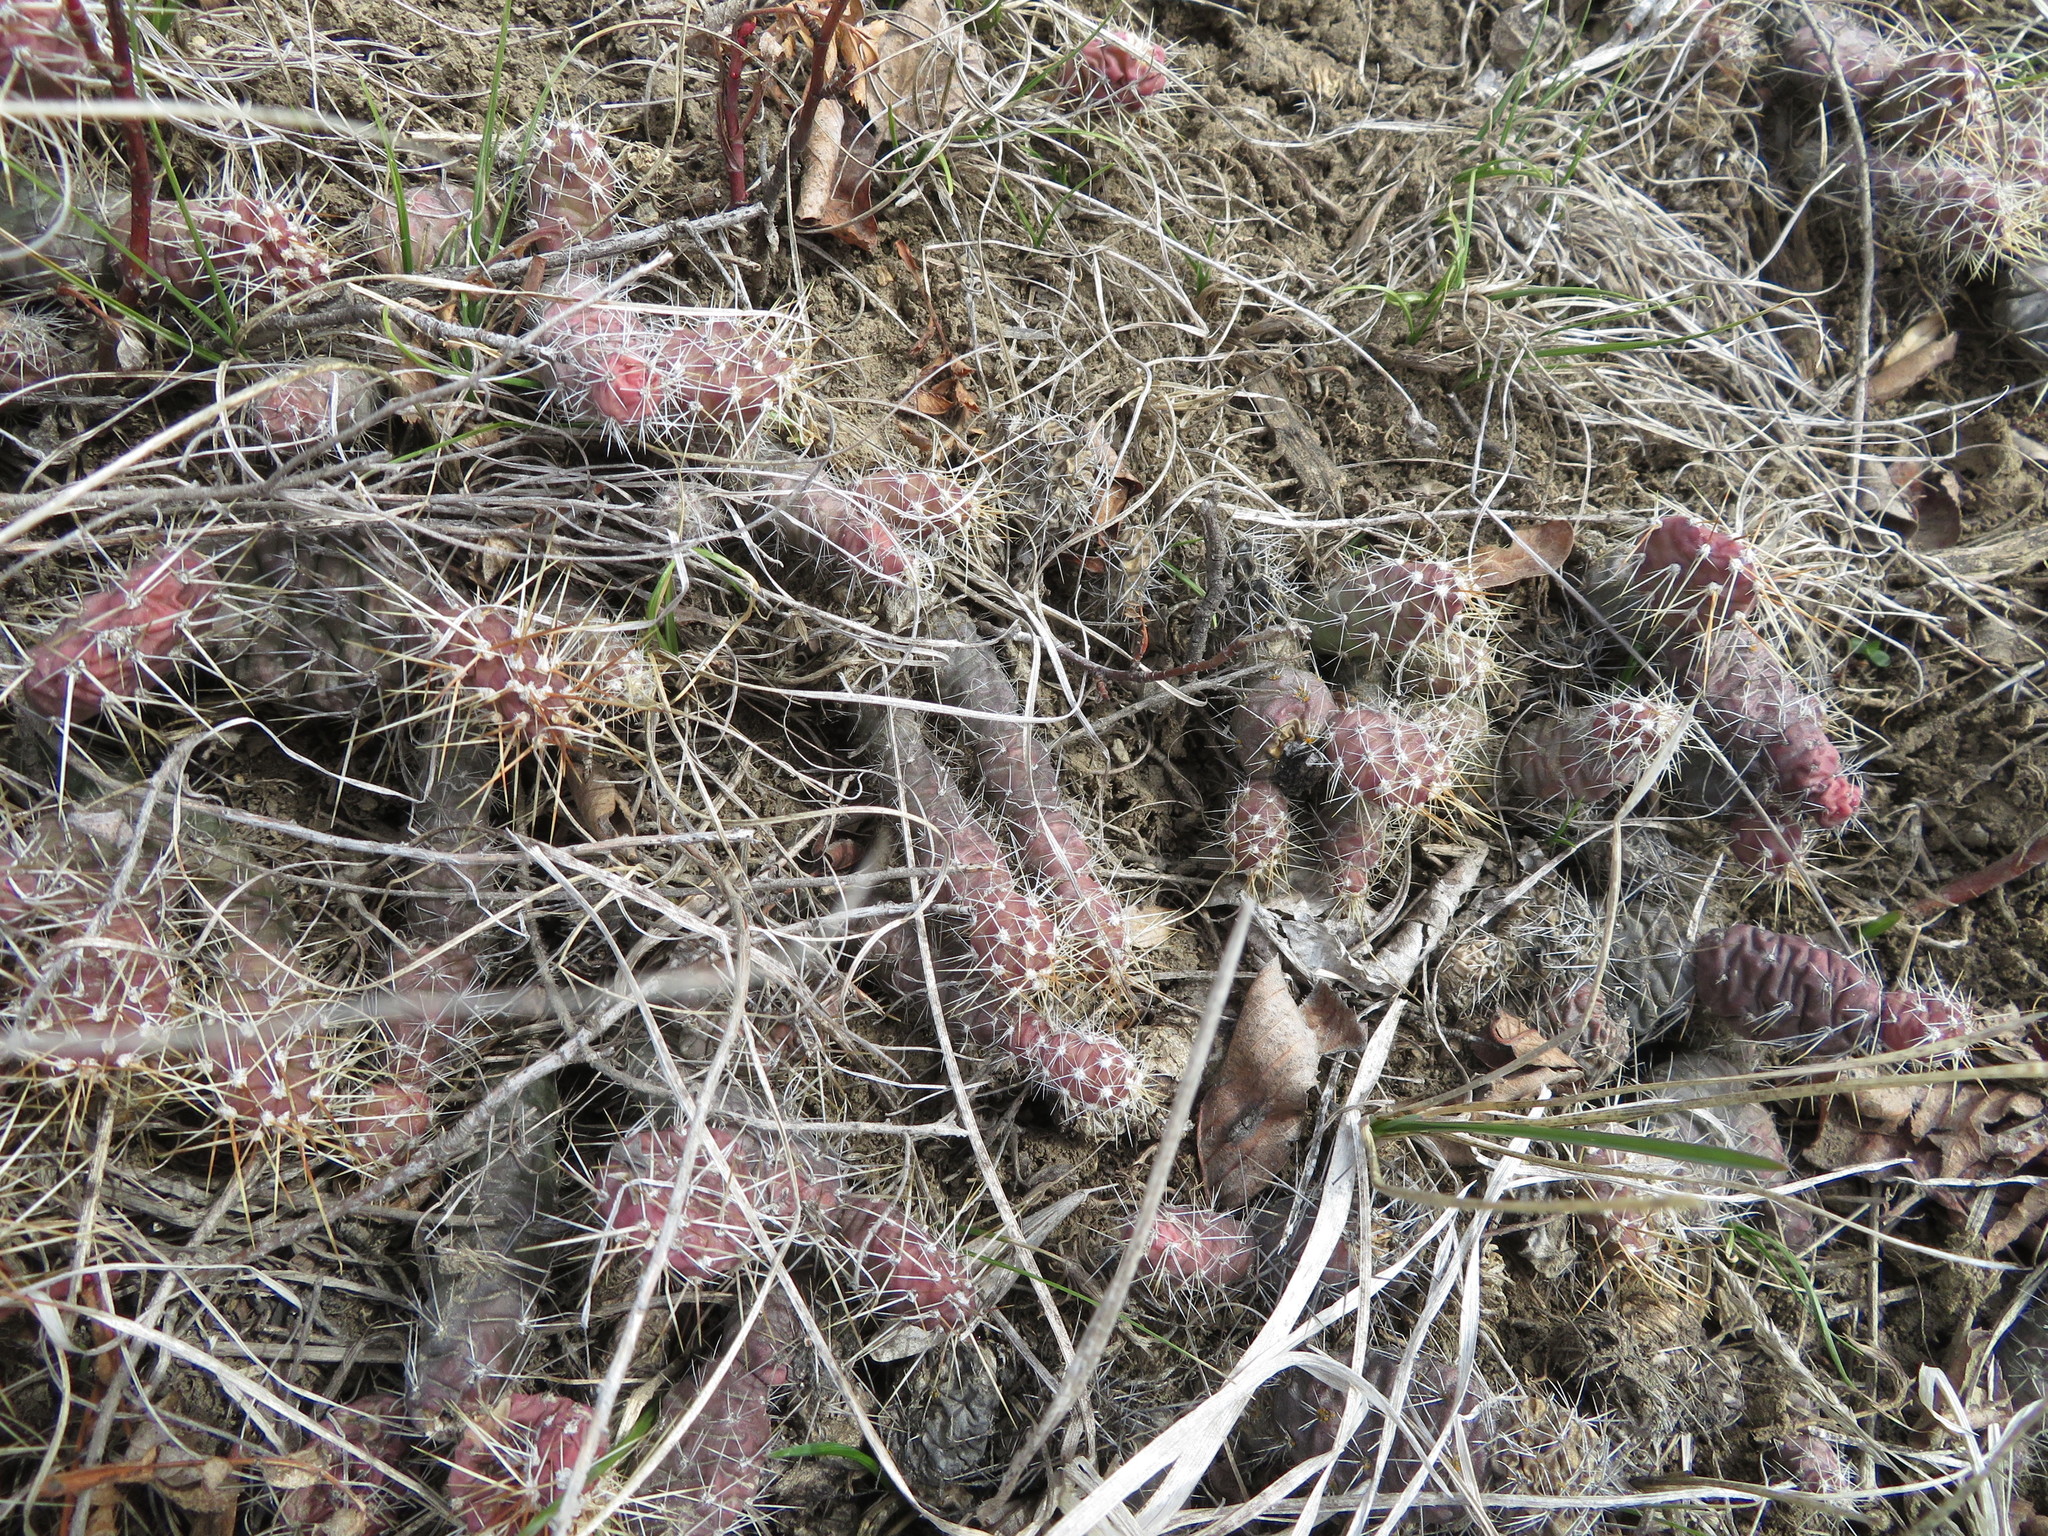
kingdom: Plantae
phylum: Tracheophyta
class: Magnoliopsida
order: Caryophyllales
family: Cactaceae
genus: Opuntia
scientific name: Opuntia fragilis
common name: Brittle cactus
